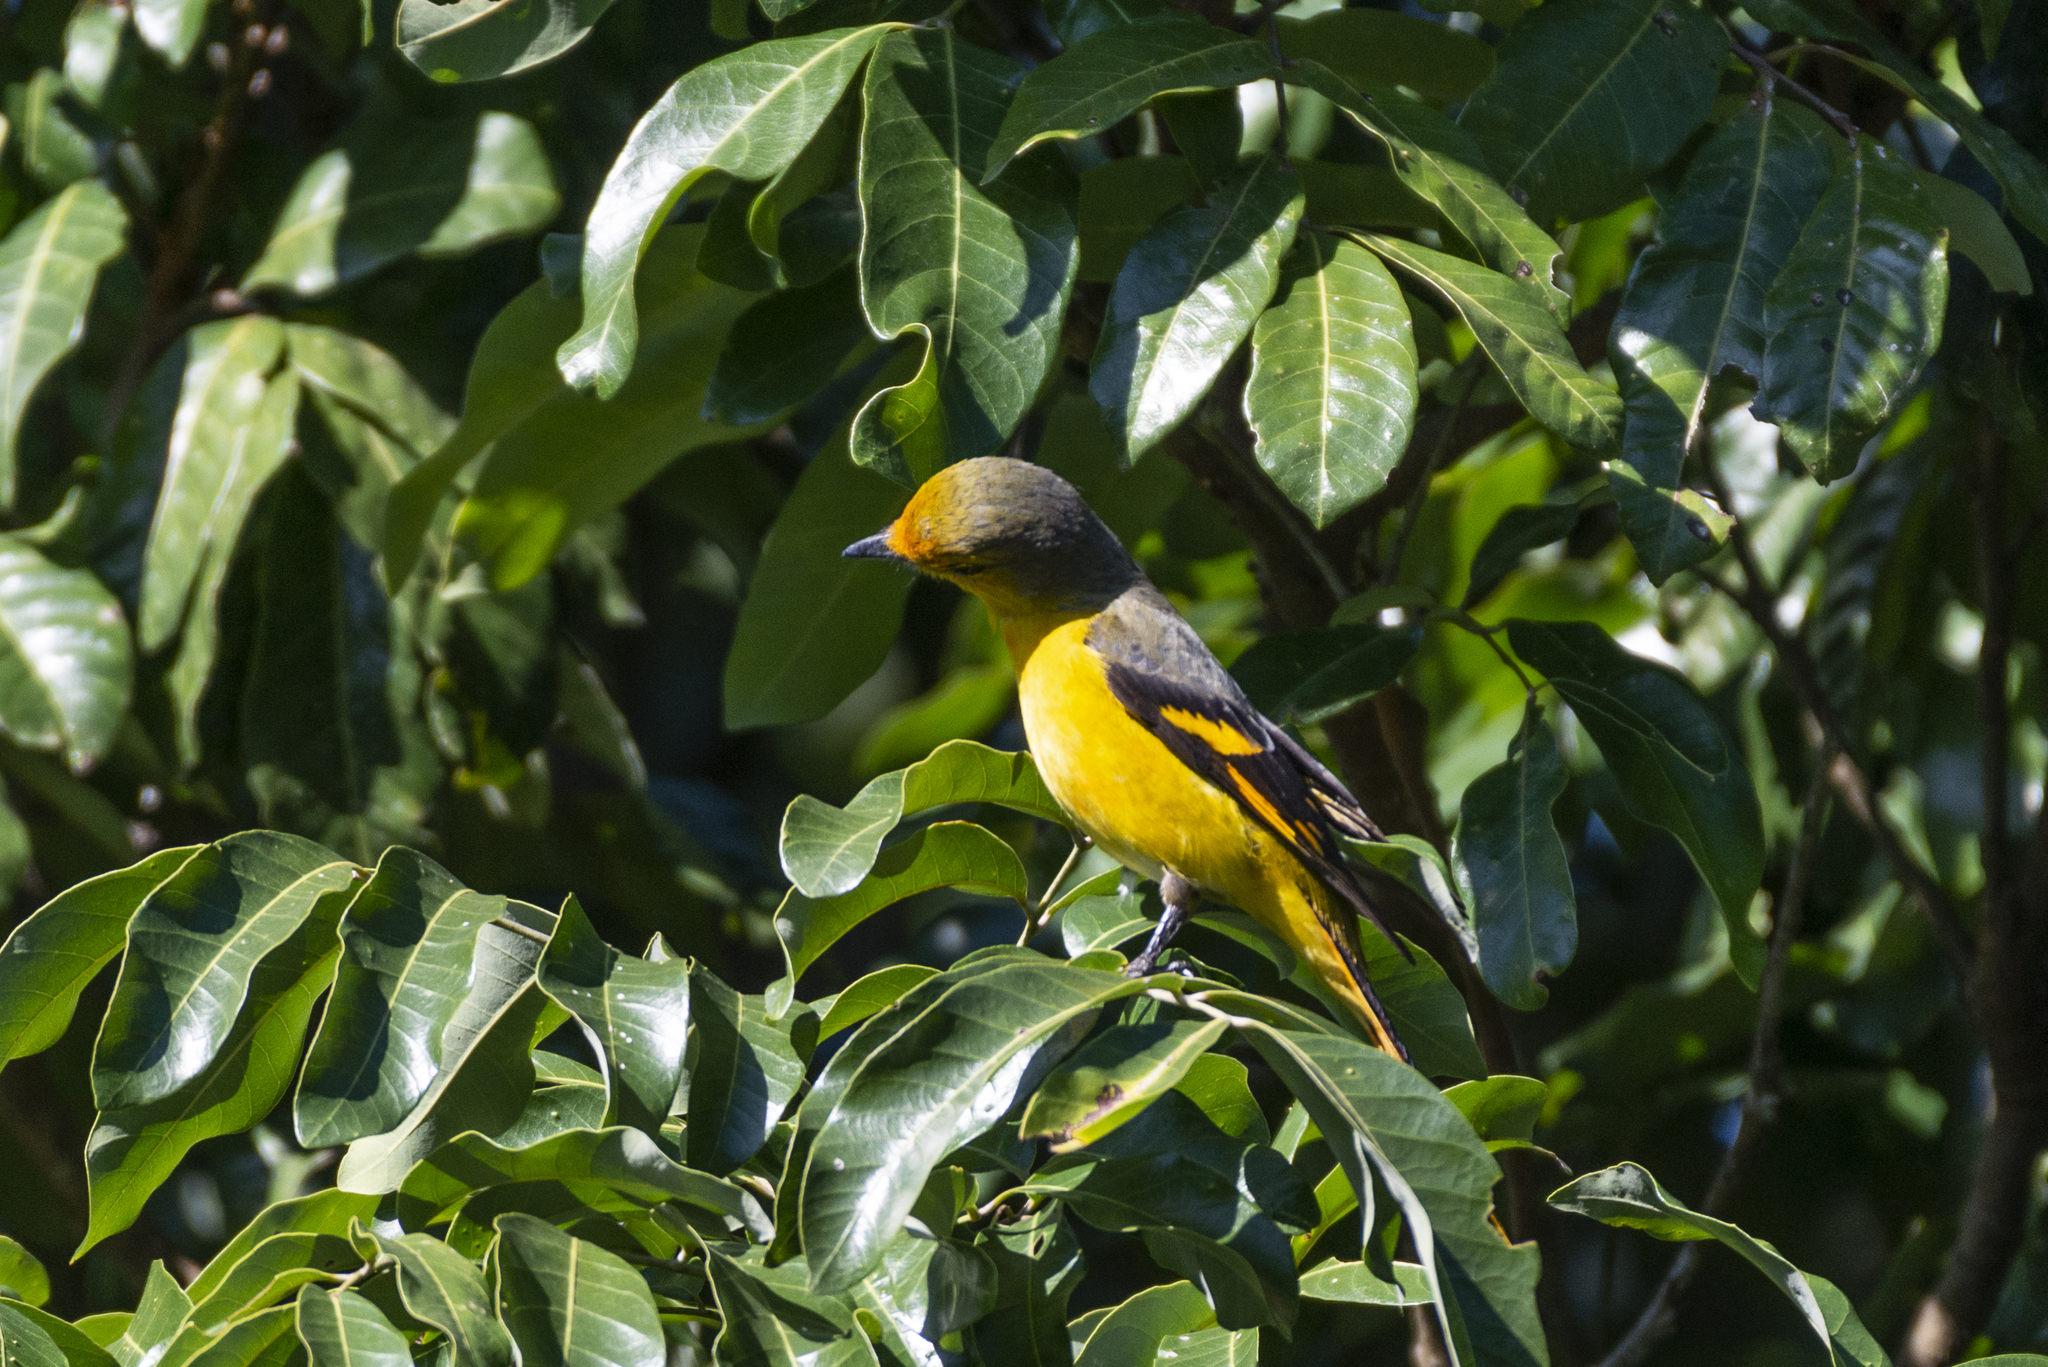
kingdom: Animalia
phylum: Chordata
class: Aves
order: Passeriformes
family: Campephagidae
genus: Pericrocotus
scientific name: Pericrocotus speciosus
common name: Scarlet minivet
